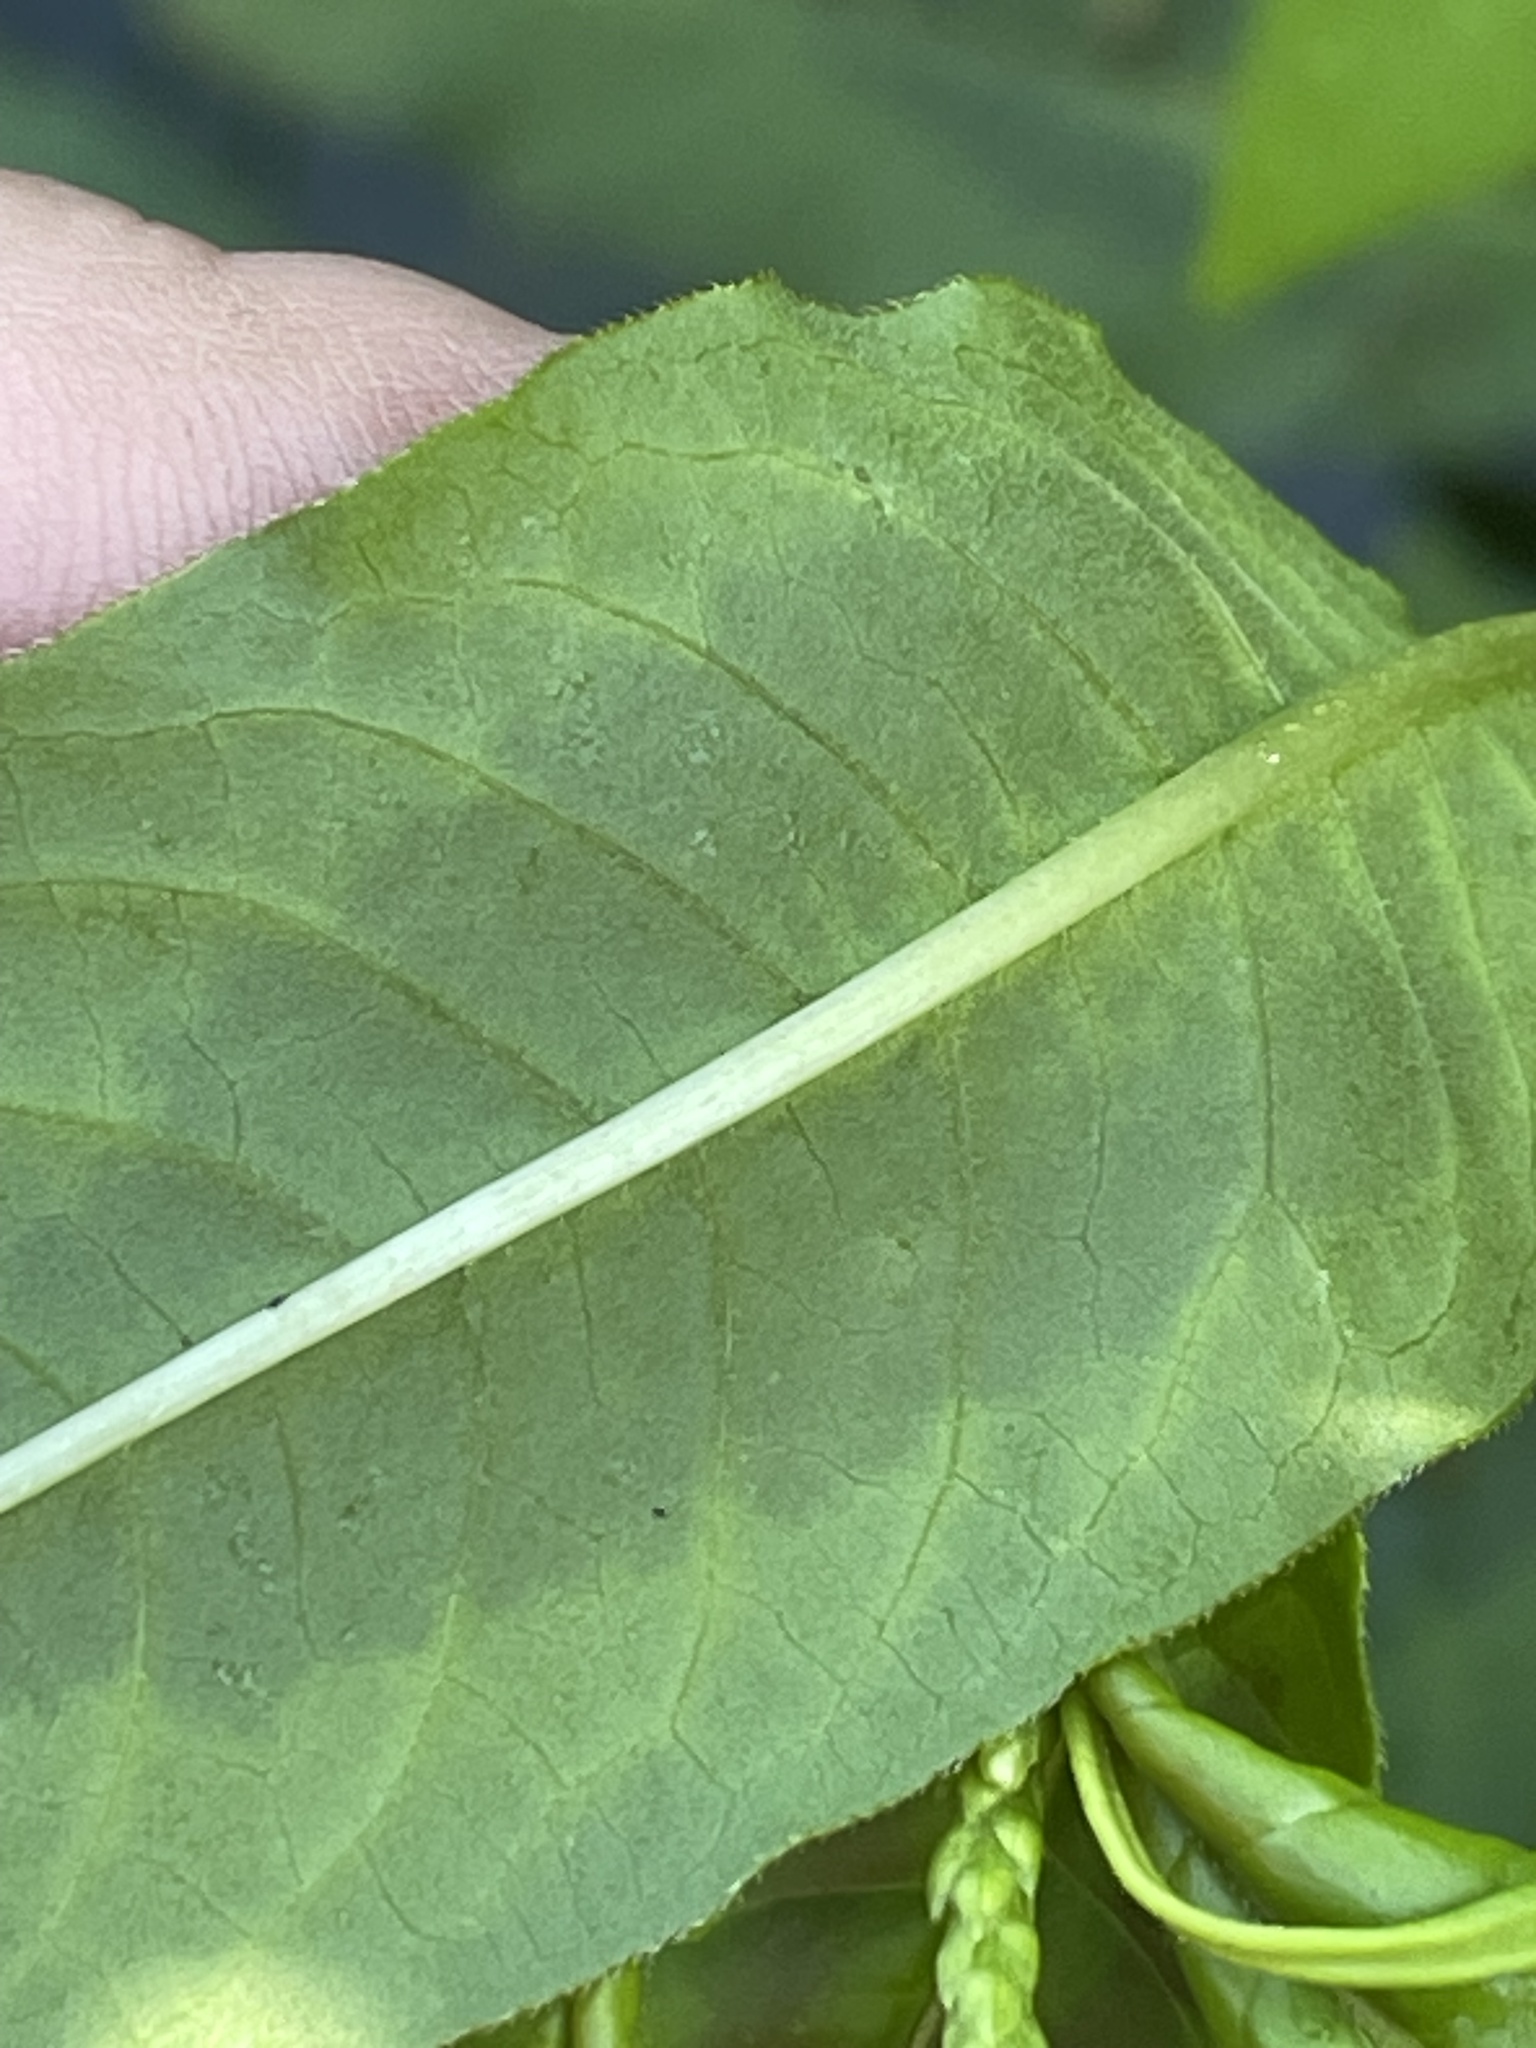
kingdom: Plantae
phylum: Tracheophyta
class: Magnoliopsida
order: Caryophyllales
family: Polygonaceae
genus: Persicaria
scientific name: Persicaria pensylvanica
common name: Pinkweed
